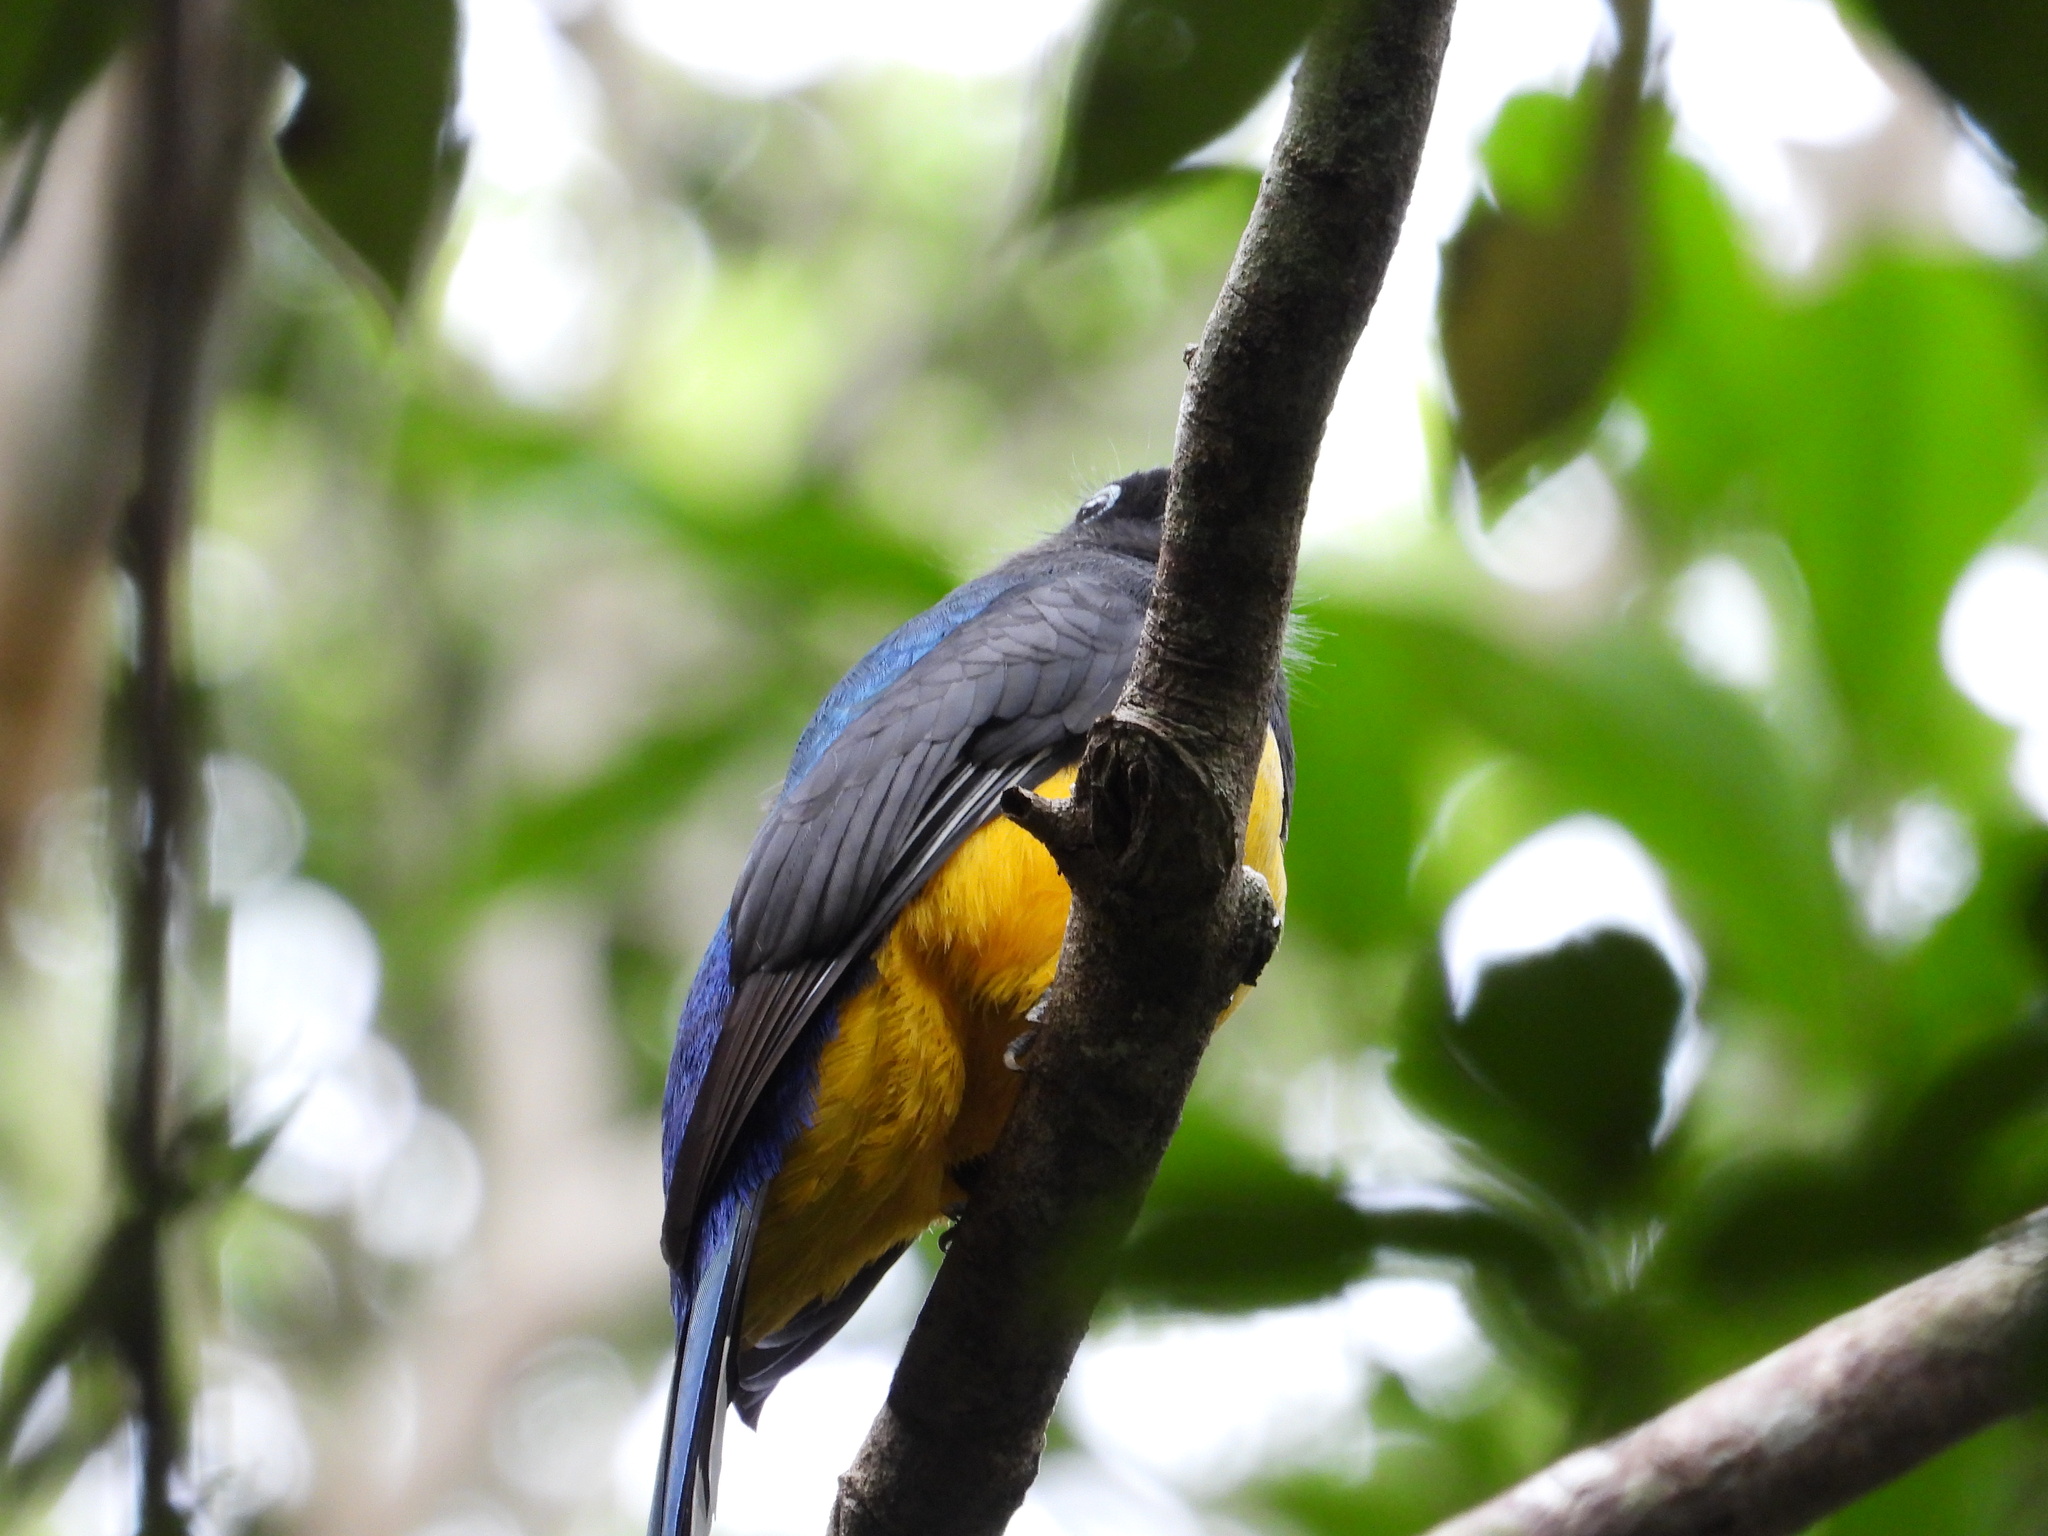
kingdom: Animalia
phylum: Chordata
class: Aves
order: Trogoniformes
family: Trogonidae
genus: Trogon
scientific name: Trogon melanocephalus
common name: Black-headed trogon
